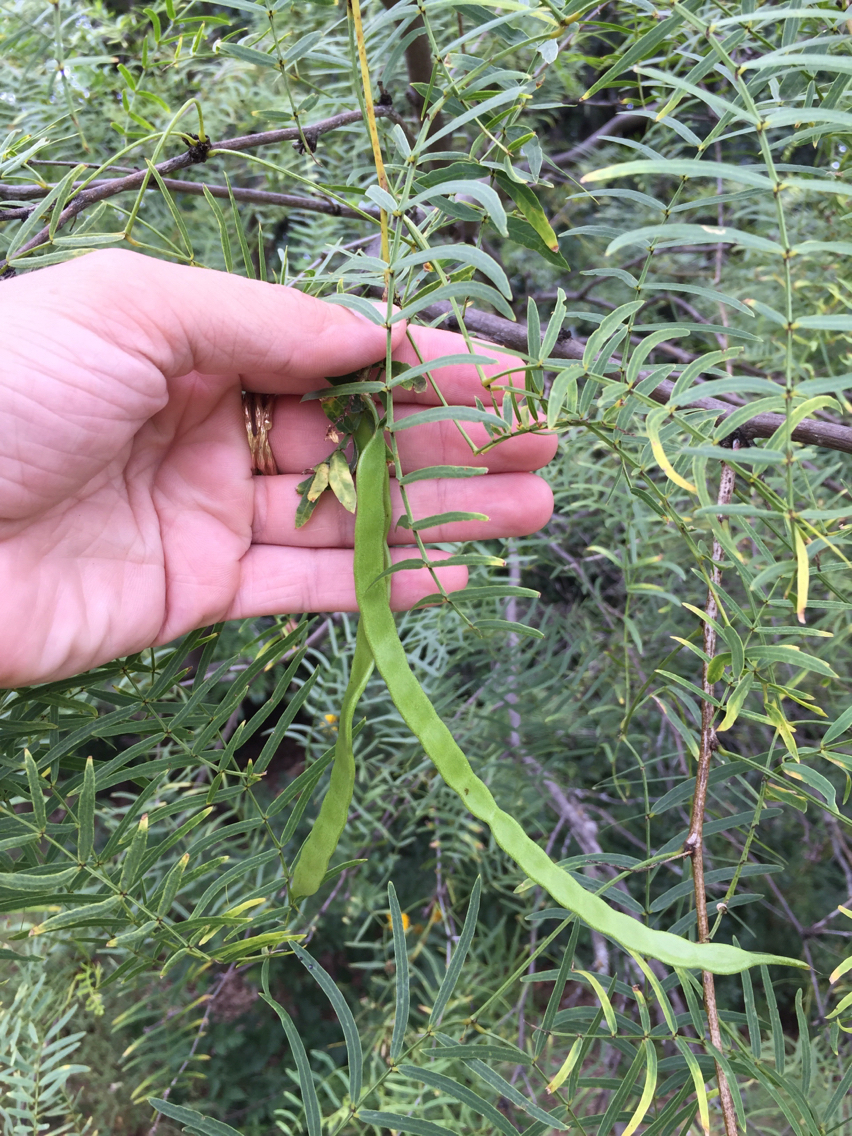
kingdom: Plantae
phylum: Tracheophyta
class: Magnoliopsida
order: Fabales
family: Fabaceae
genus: Prosopis
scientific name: Prosopis glandulosa
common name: Honey mesquite
